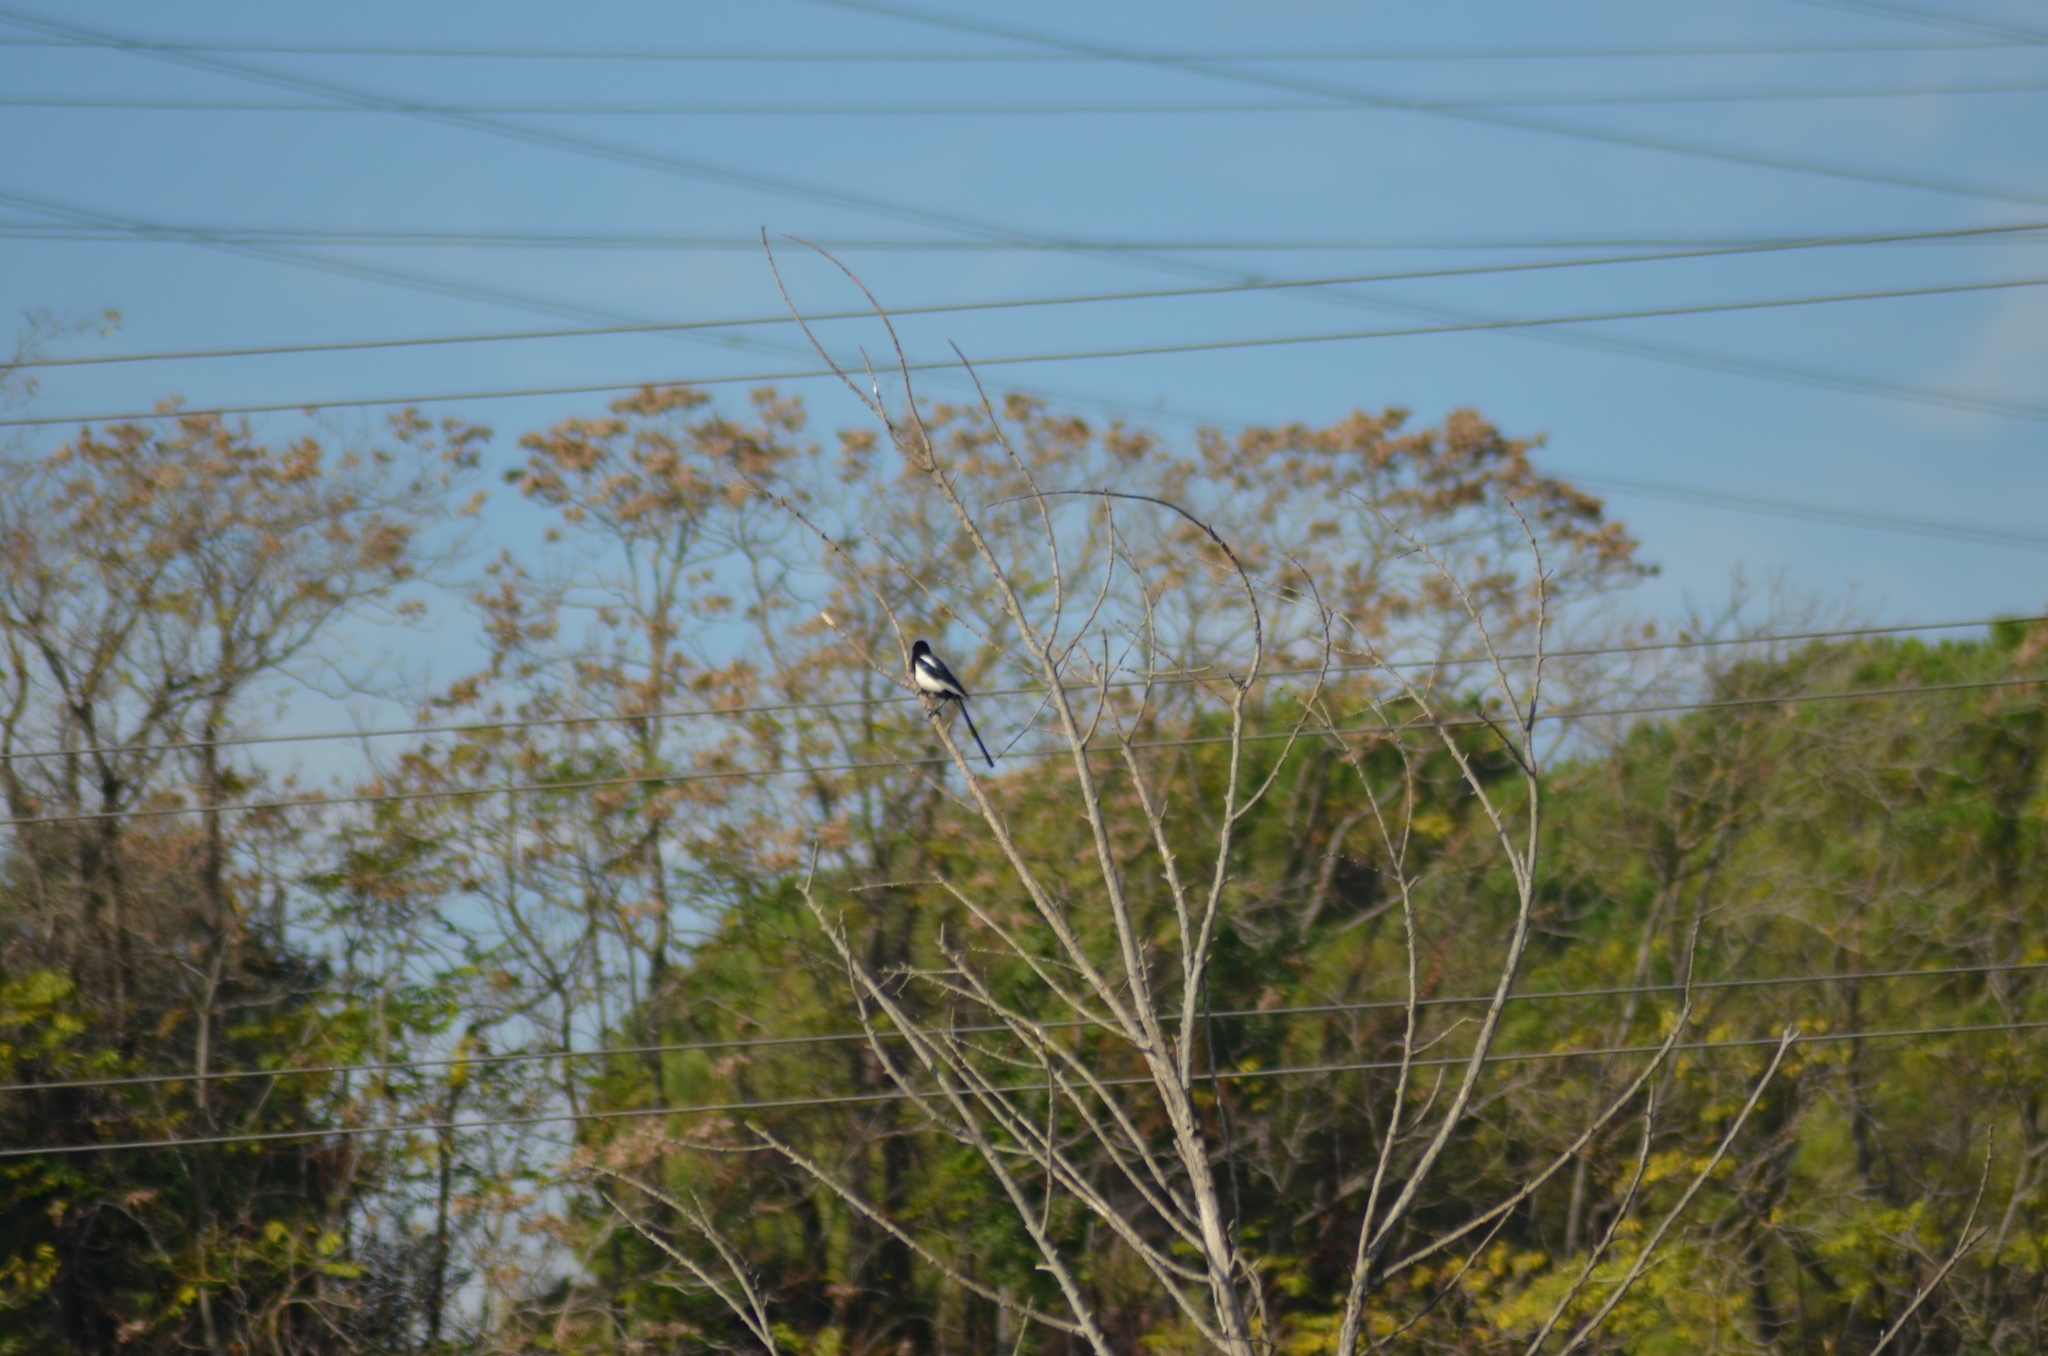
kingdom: Animalia
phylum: Chordata
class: Aves
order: Passeriformes
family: Corvidae
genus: Pica
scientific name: Pica pica
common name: Eurasian magpie
